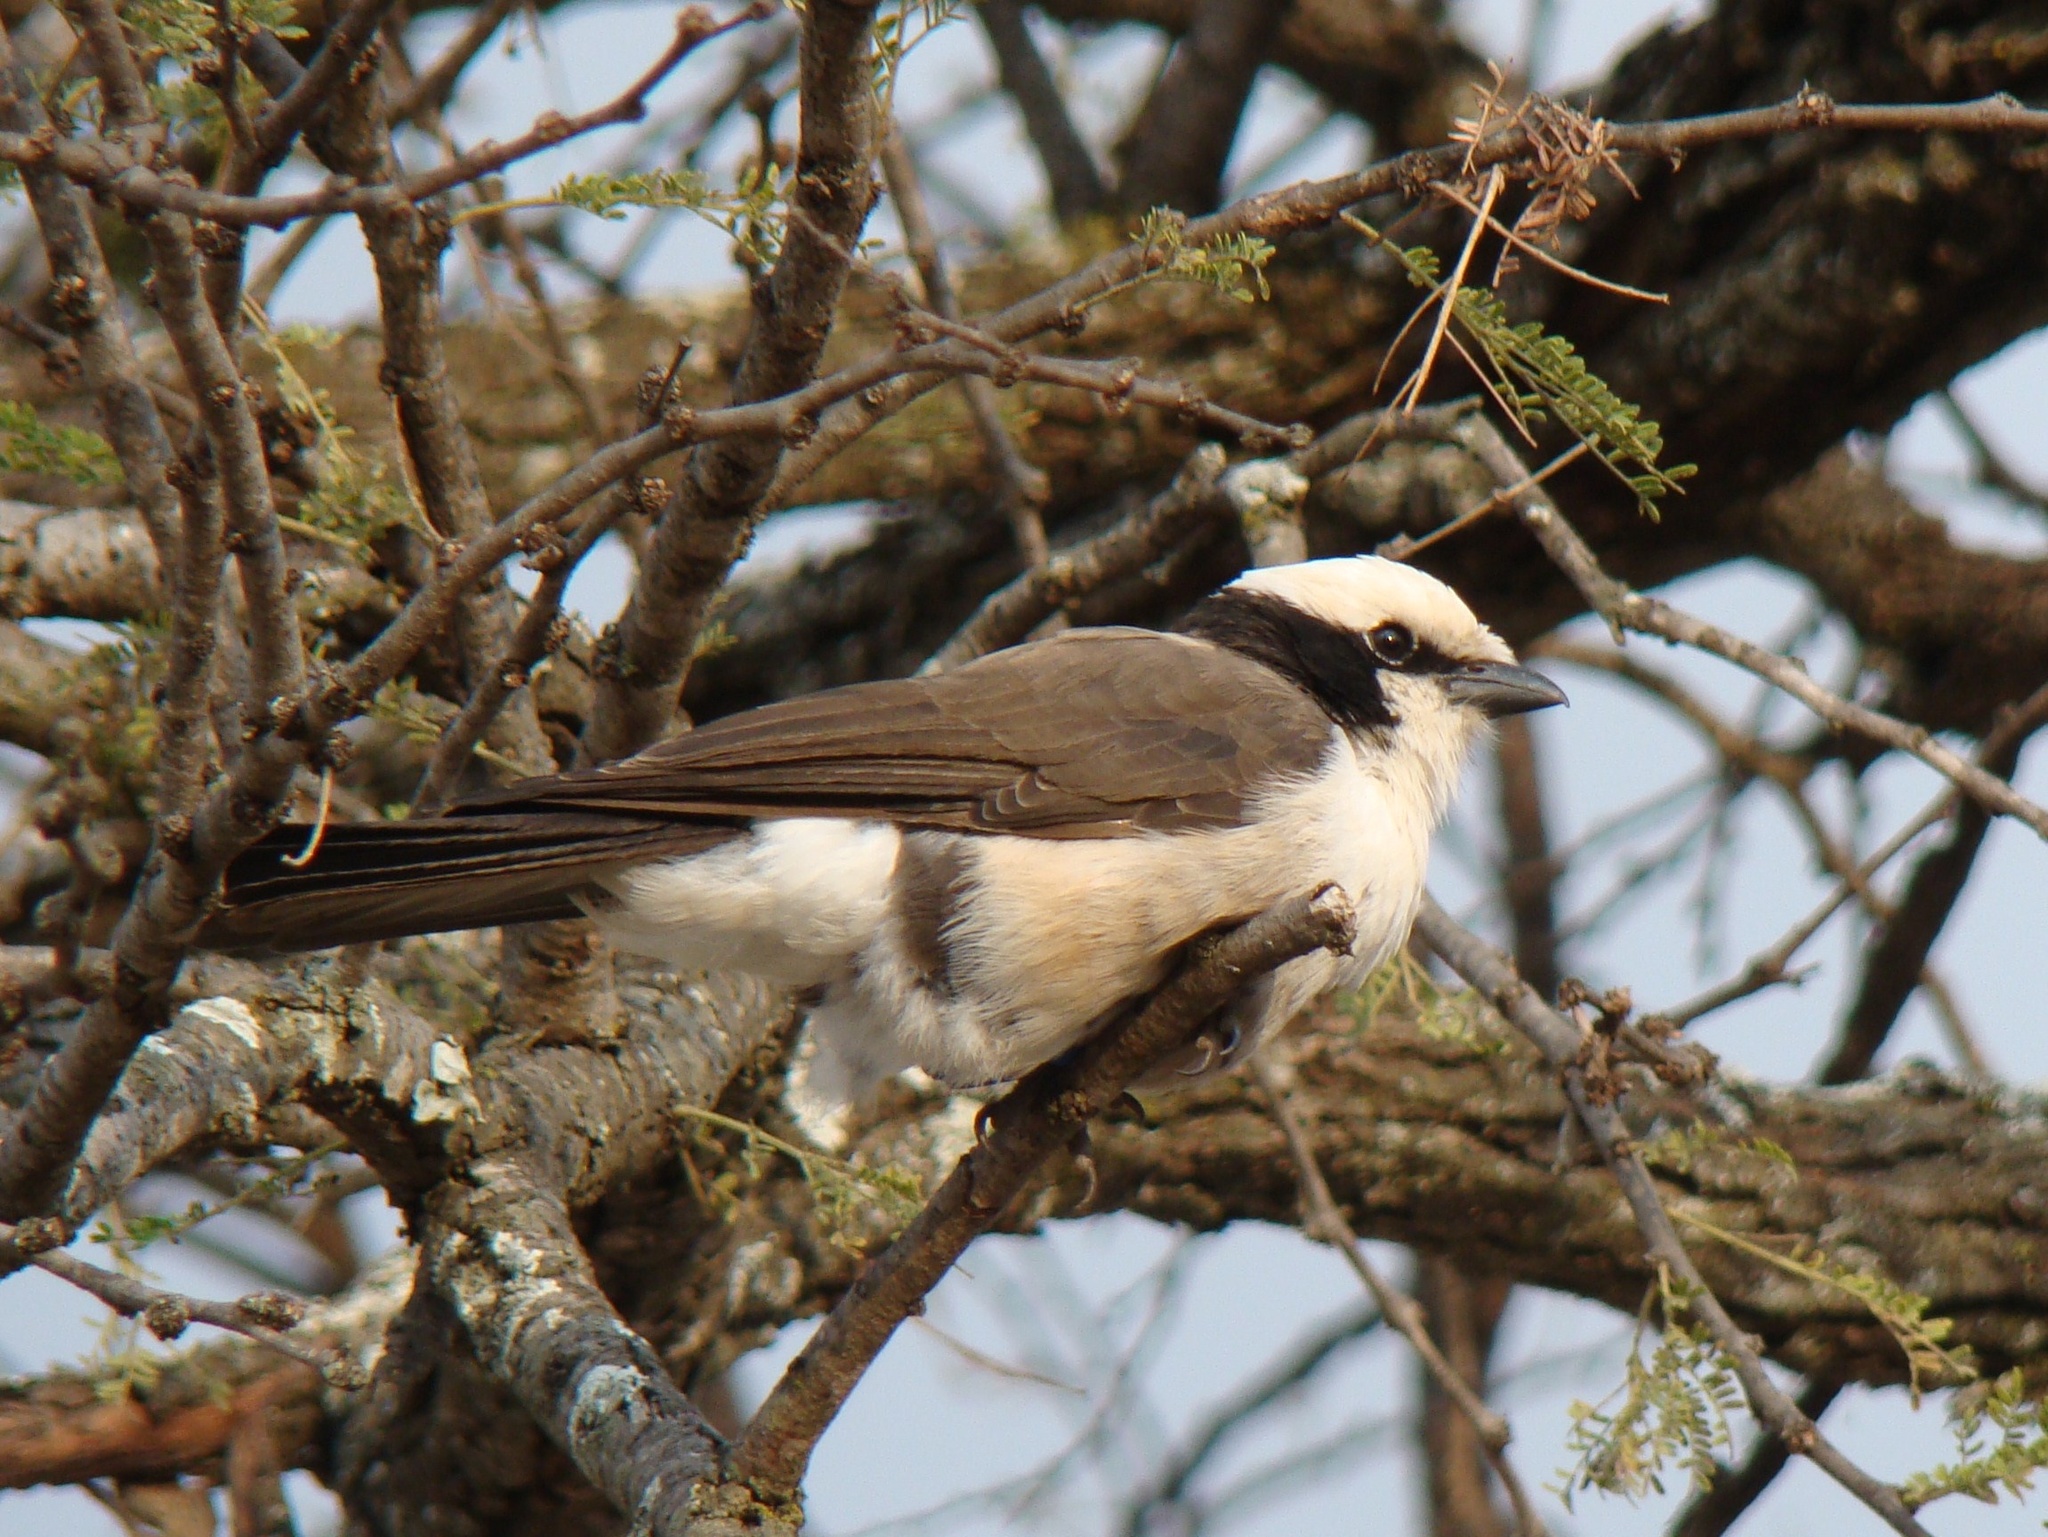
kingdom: Animalia
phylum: Chordata
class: Aves
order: Passeriformes
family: Laniidae
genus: Eurocephalus
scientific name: Eurocephalus ruppelli
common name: Northern white-crowned shrike
